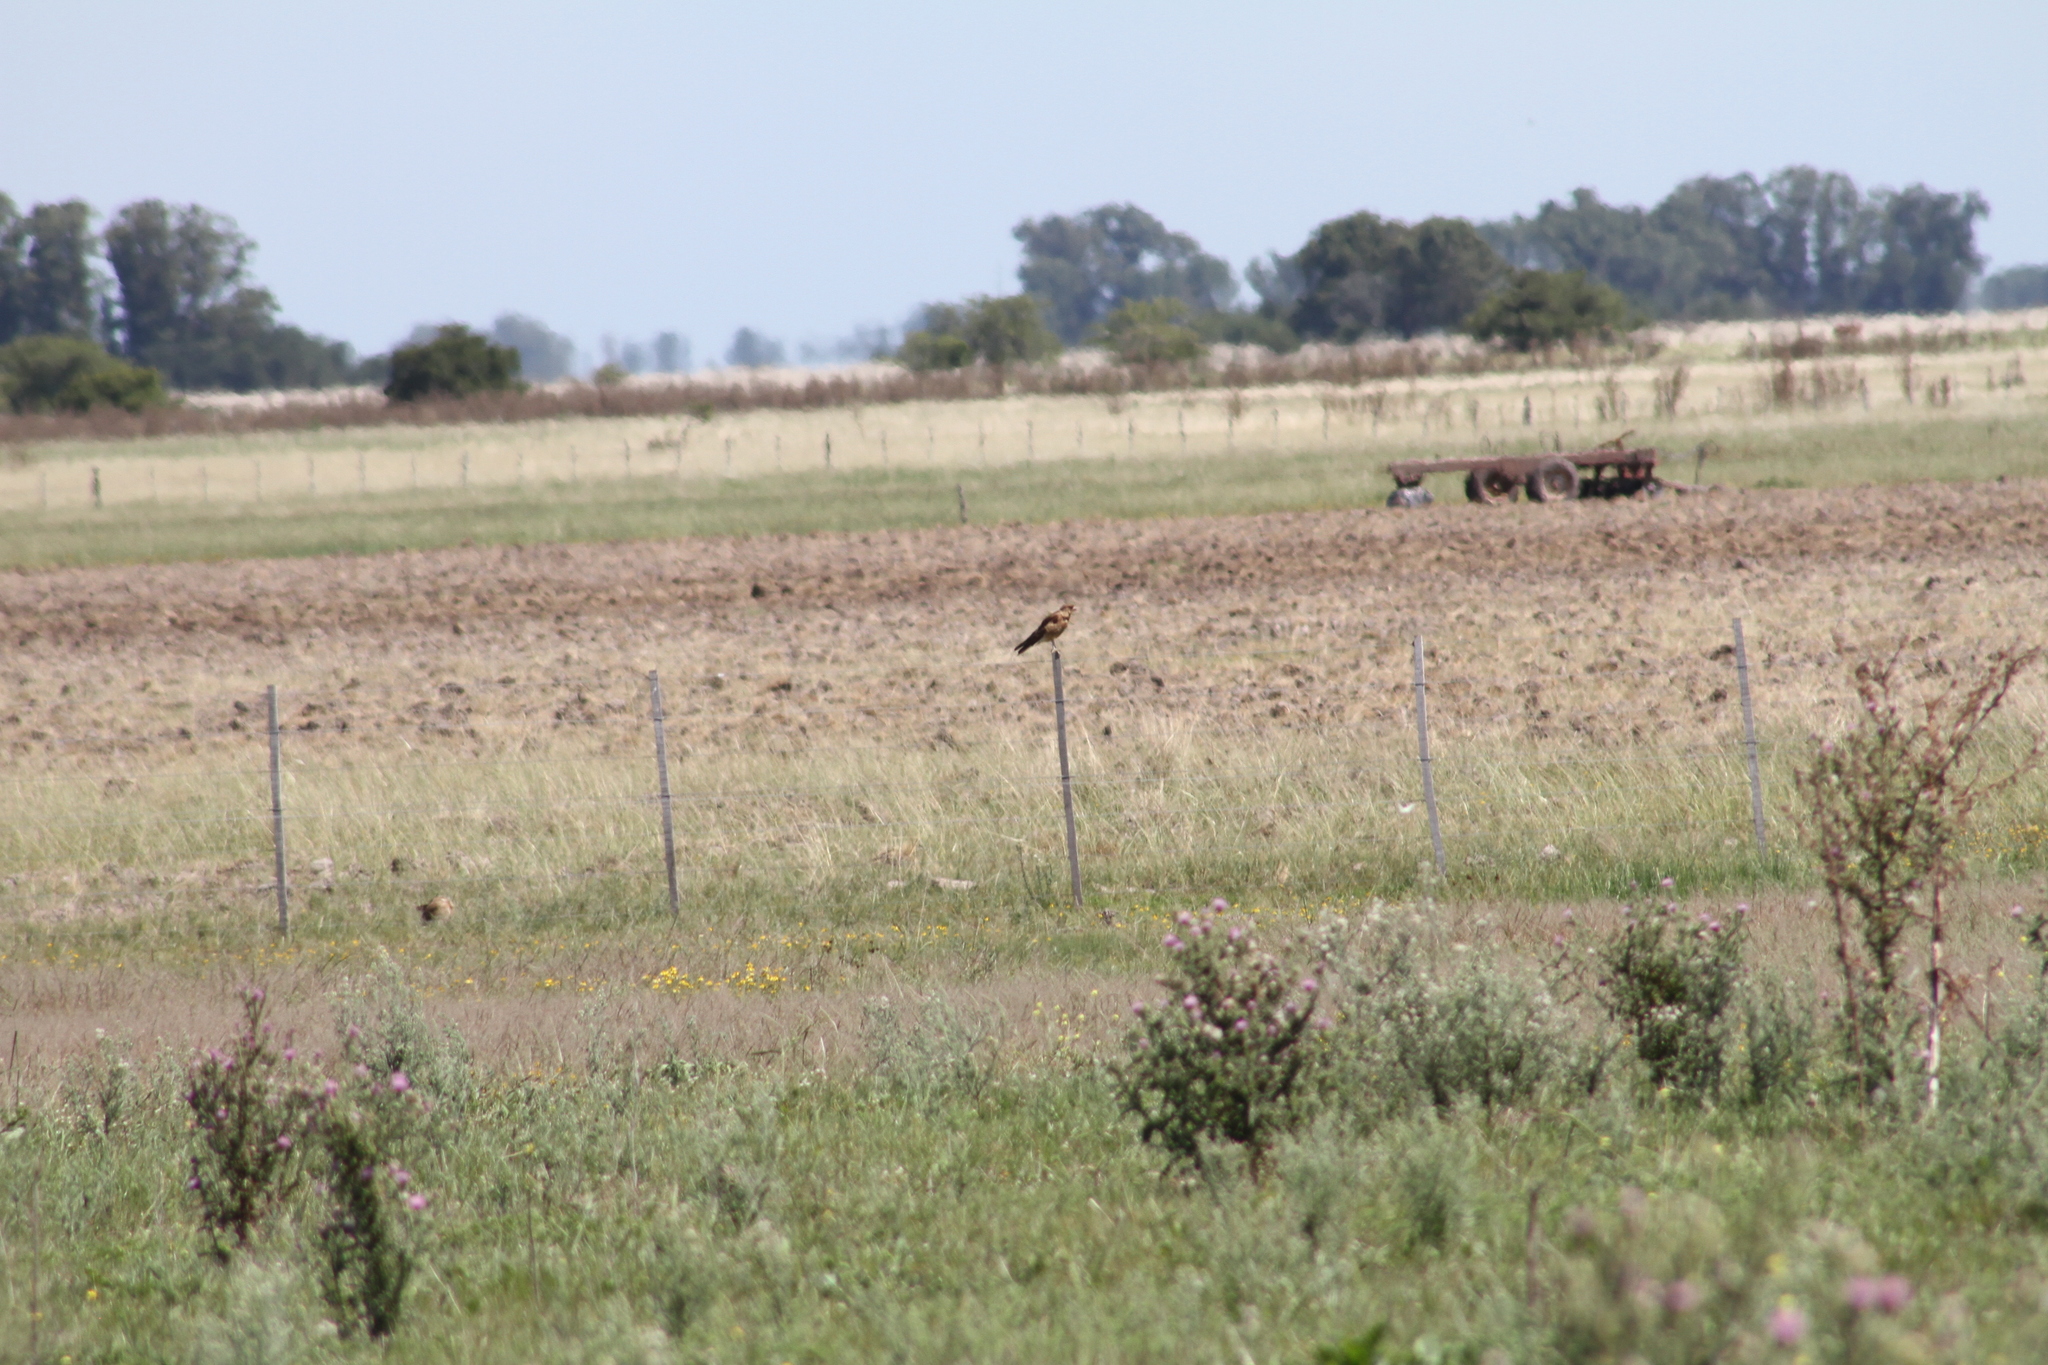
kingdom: Animalia
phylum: Chordata
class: Aves
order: Falconiformes
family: Falconidae
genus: Daptrius
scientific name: Daptrius
